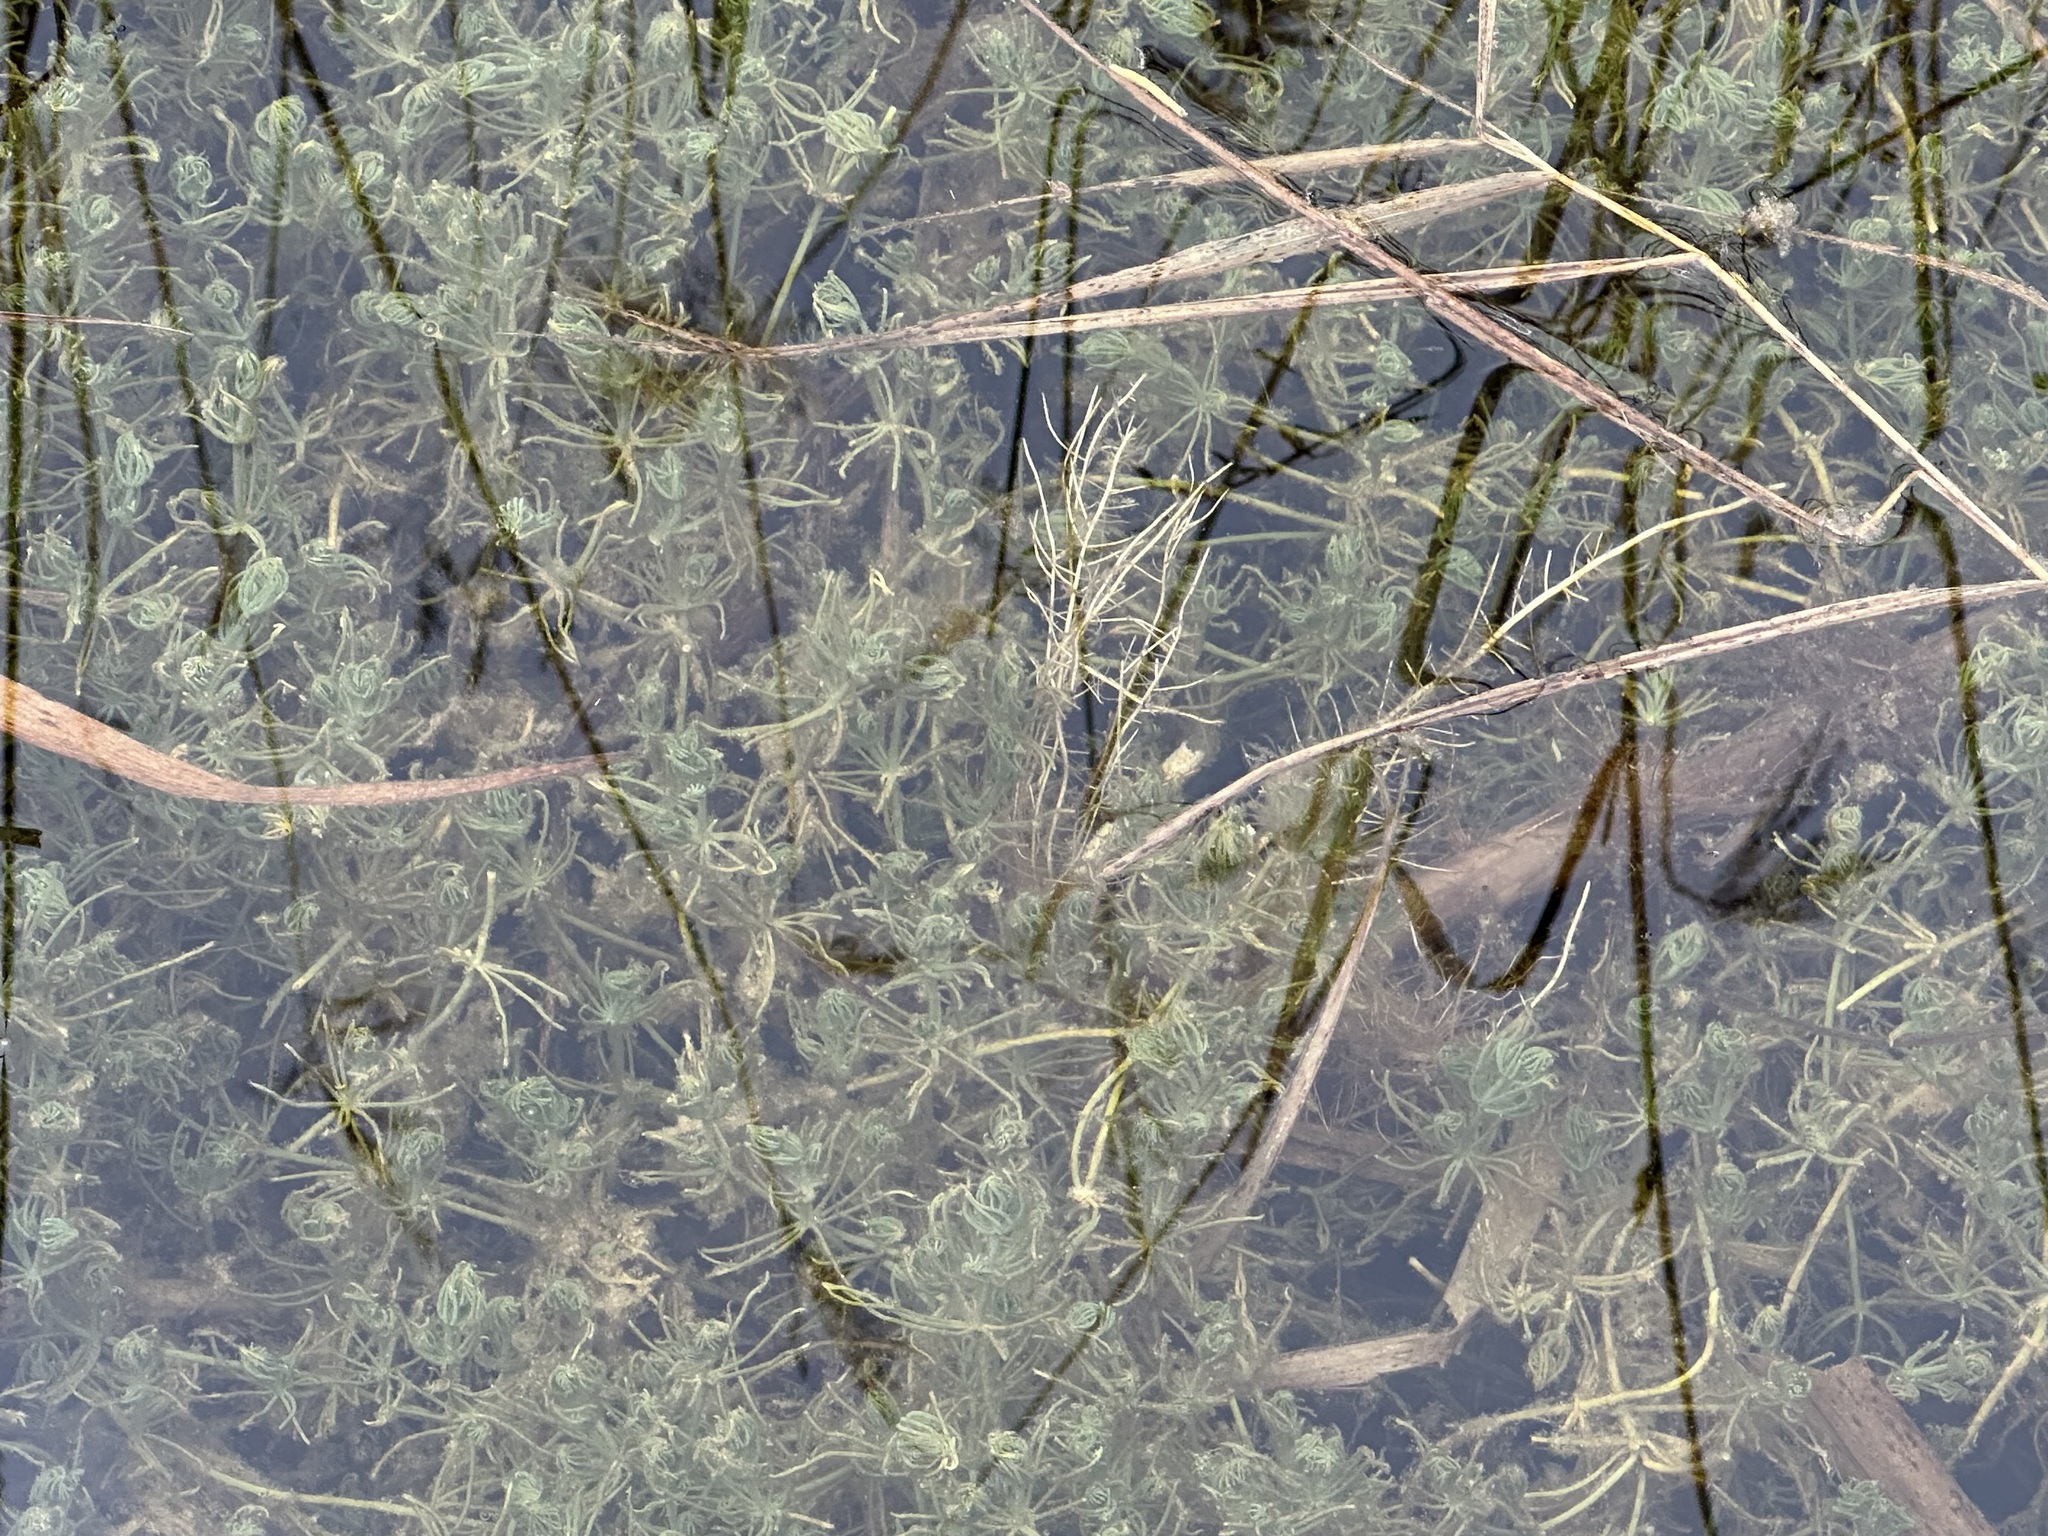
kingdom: Plantae
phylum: Charophyta
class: Charophyceae
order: Charales
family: Characeae
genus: Chara
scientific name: Chara hispida
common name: Bristly stonewort
